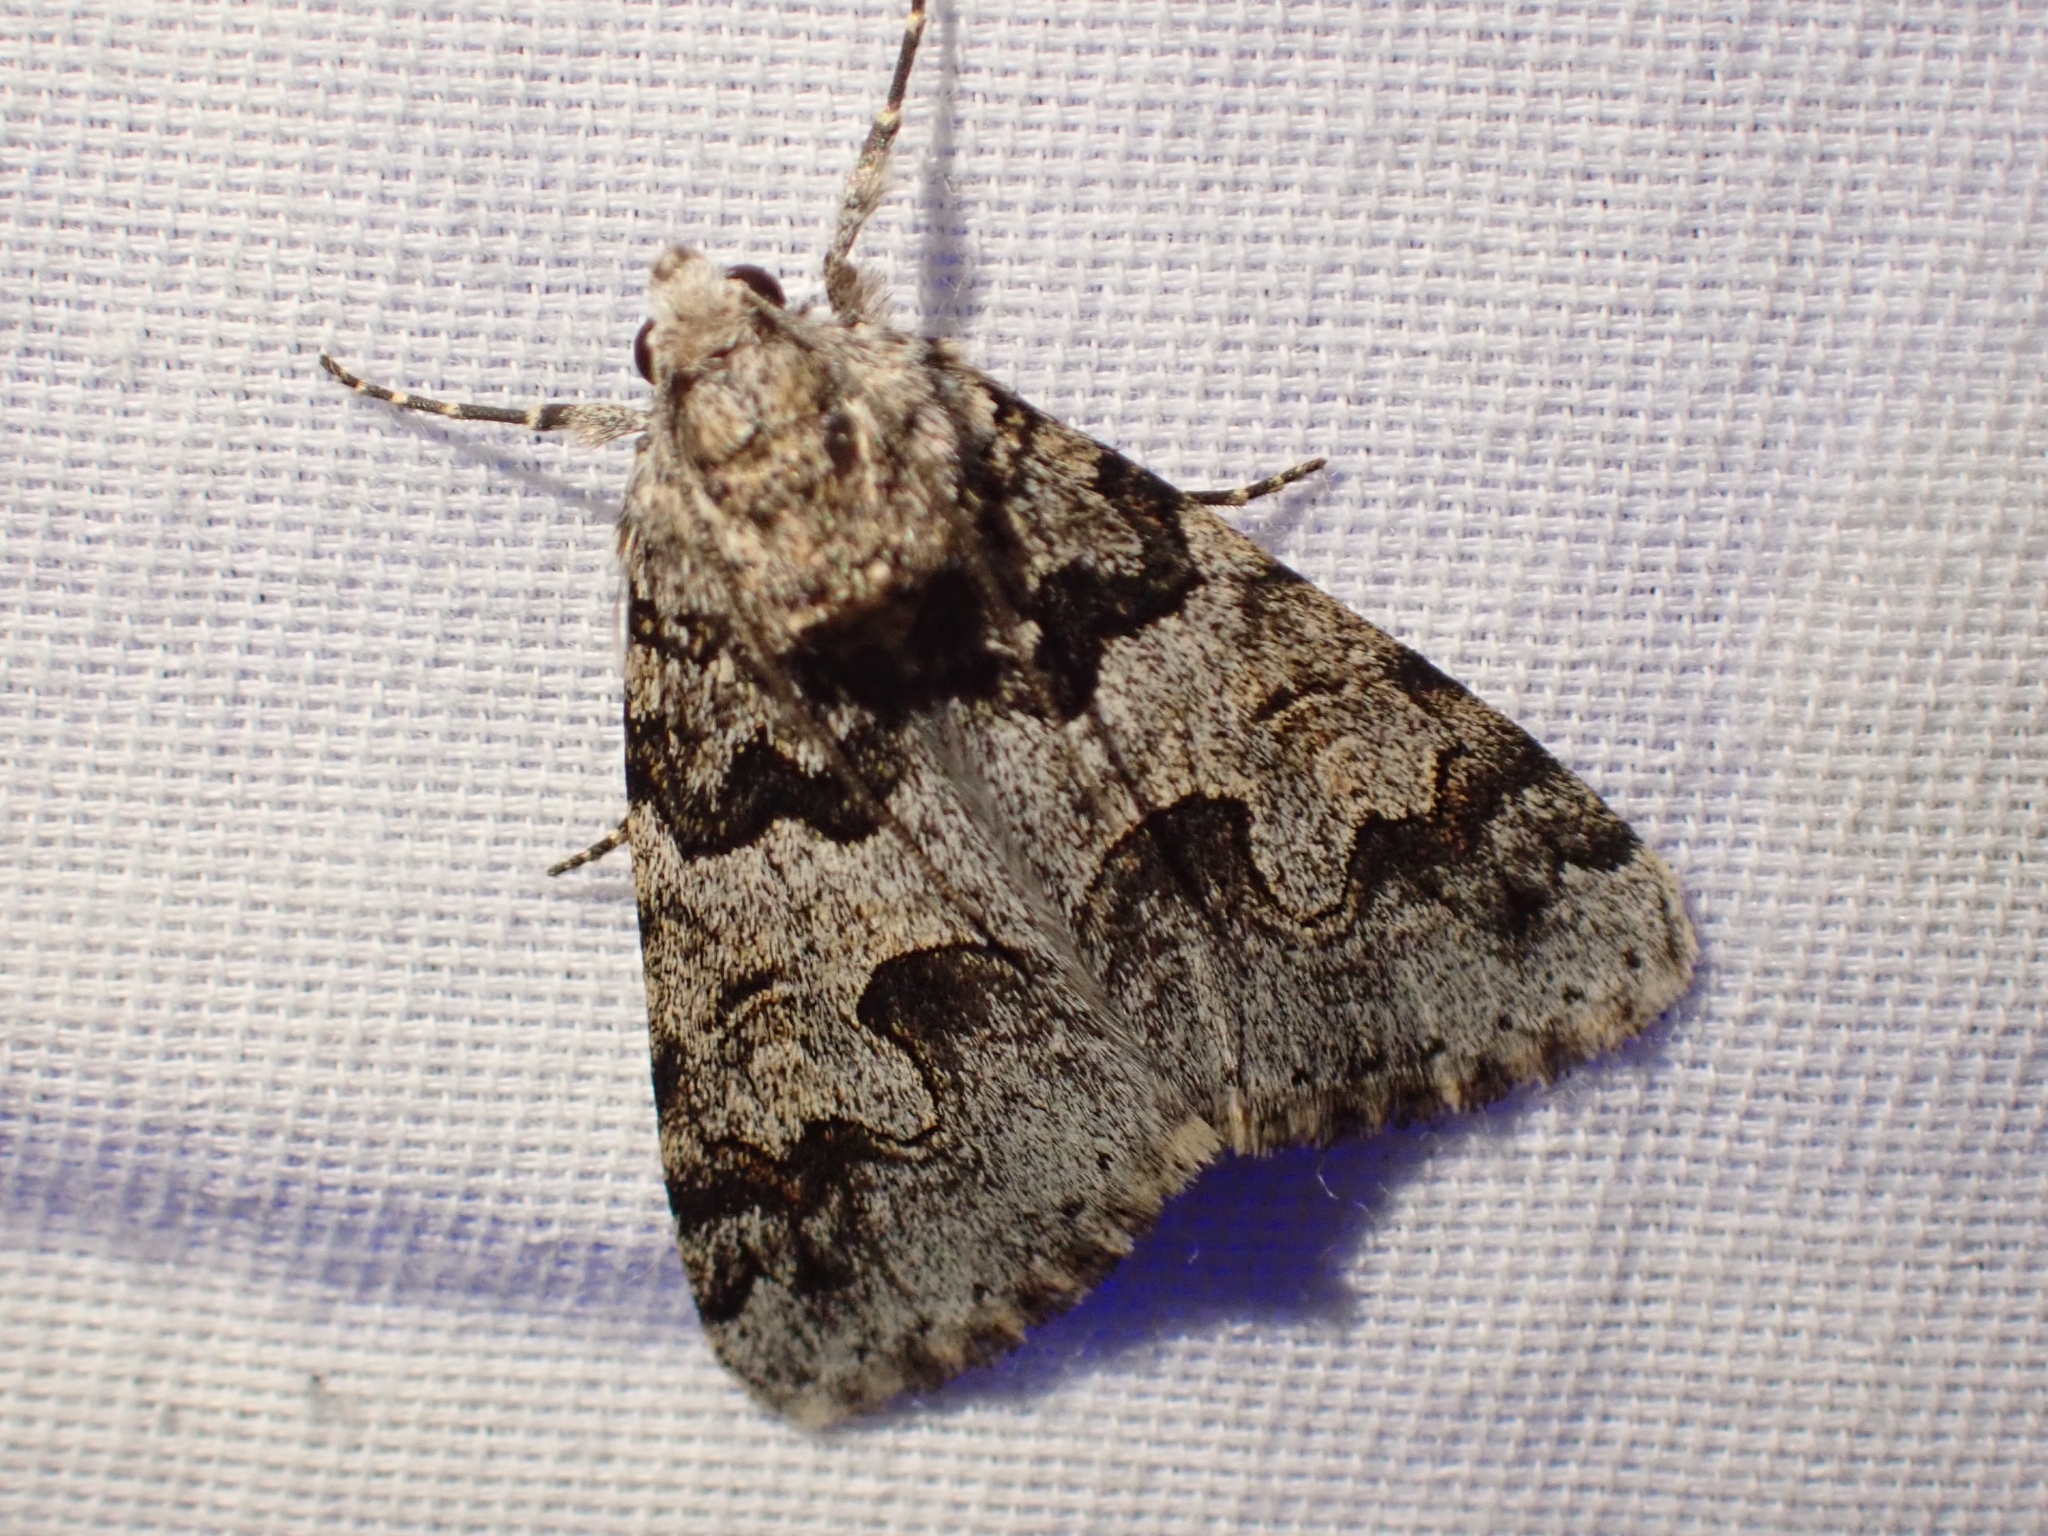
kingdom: Animalia
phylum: Arthropoda
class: Insecta
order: Lepidoptera
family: Erebidae
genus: Drasteria
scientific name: Drasteria sabulosa
